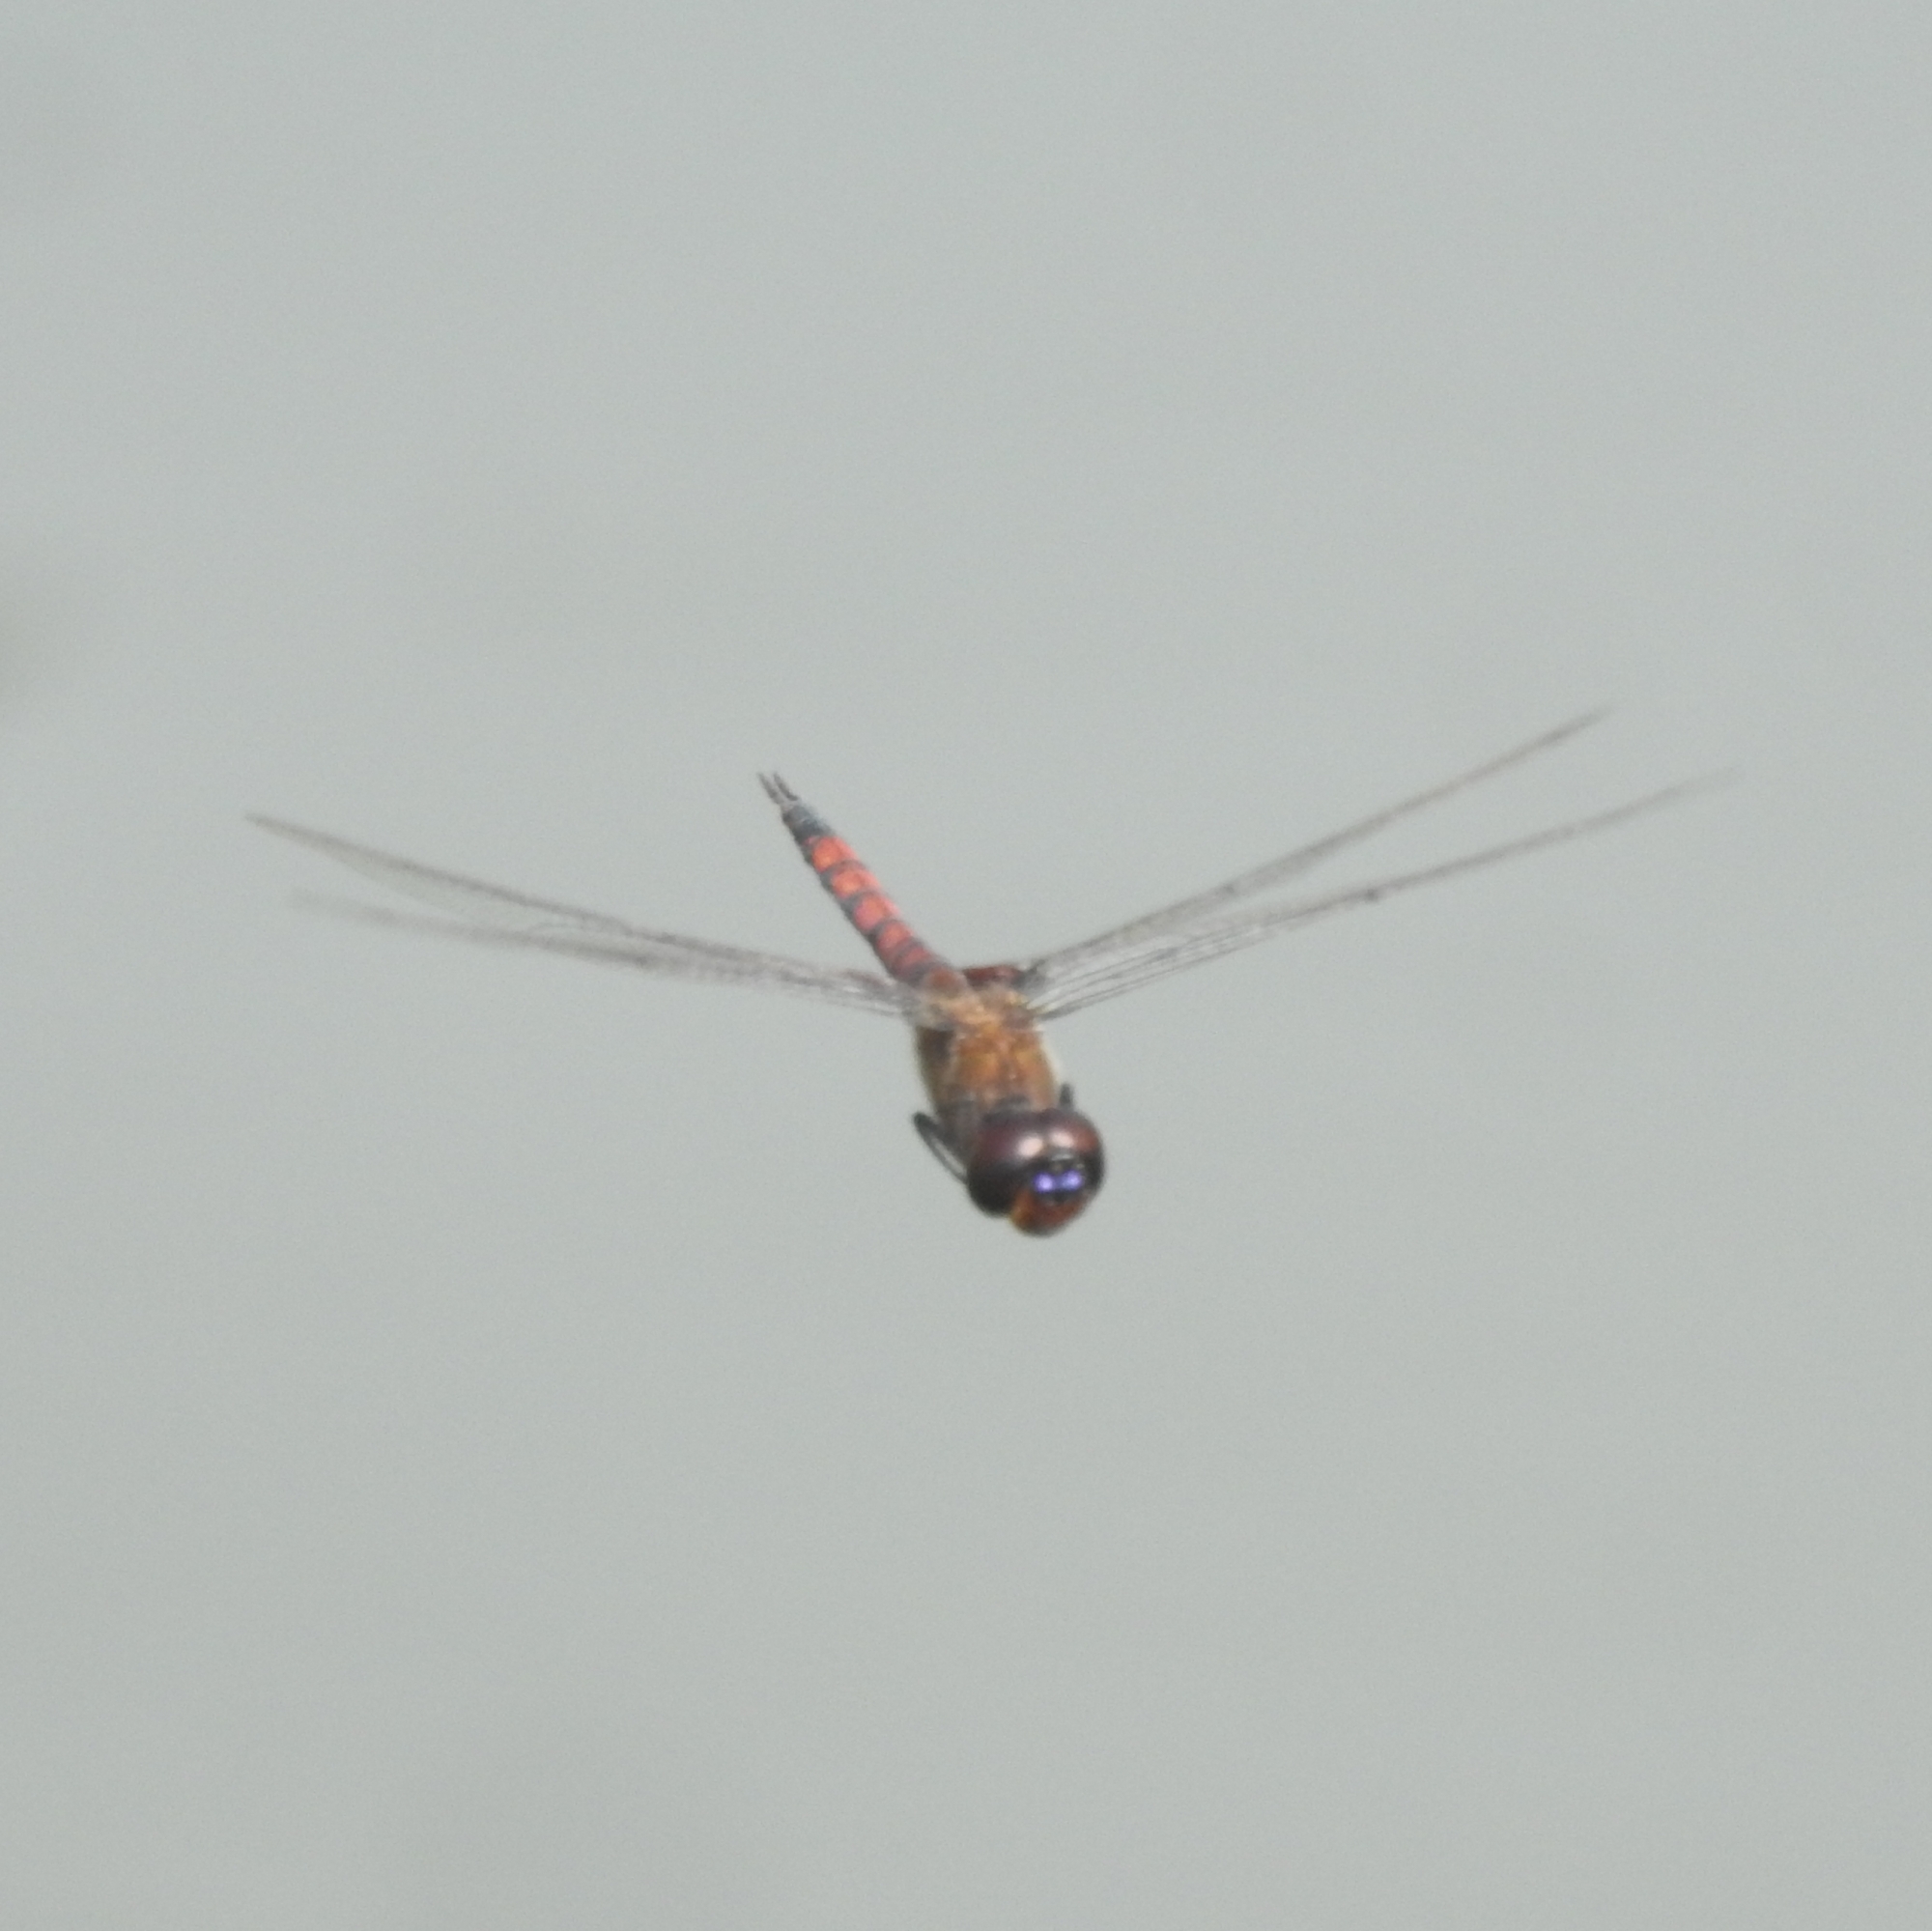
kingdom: Animalia
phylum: Arthropoda
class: Insecta
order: Odonata
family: Libellulidae
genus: Tramea
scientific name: Tramea limbata
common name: Ferruginous glider
